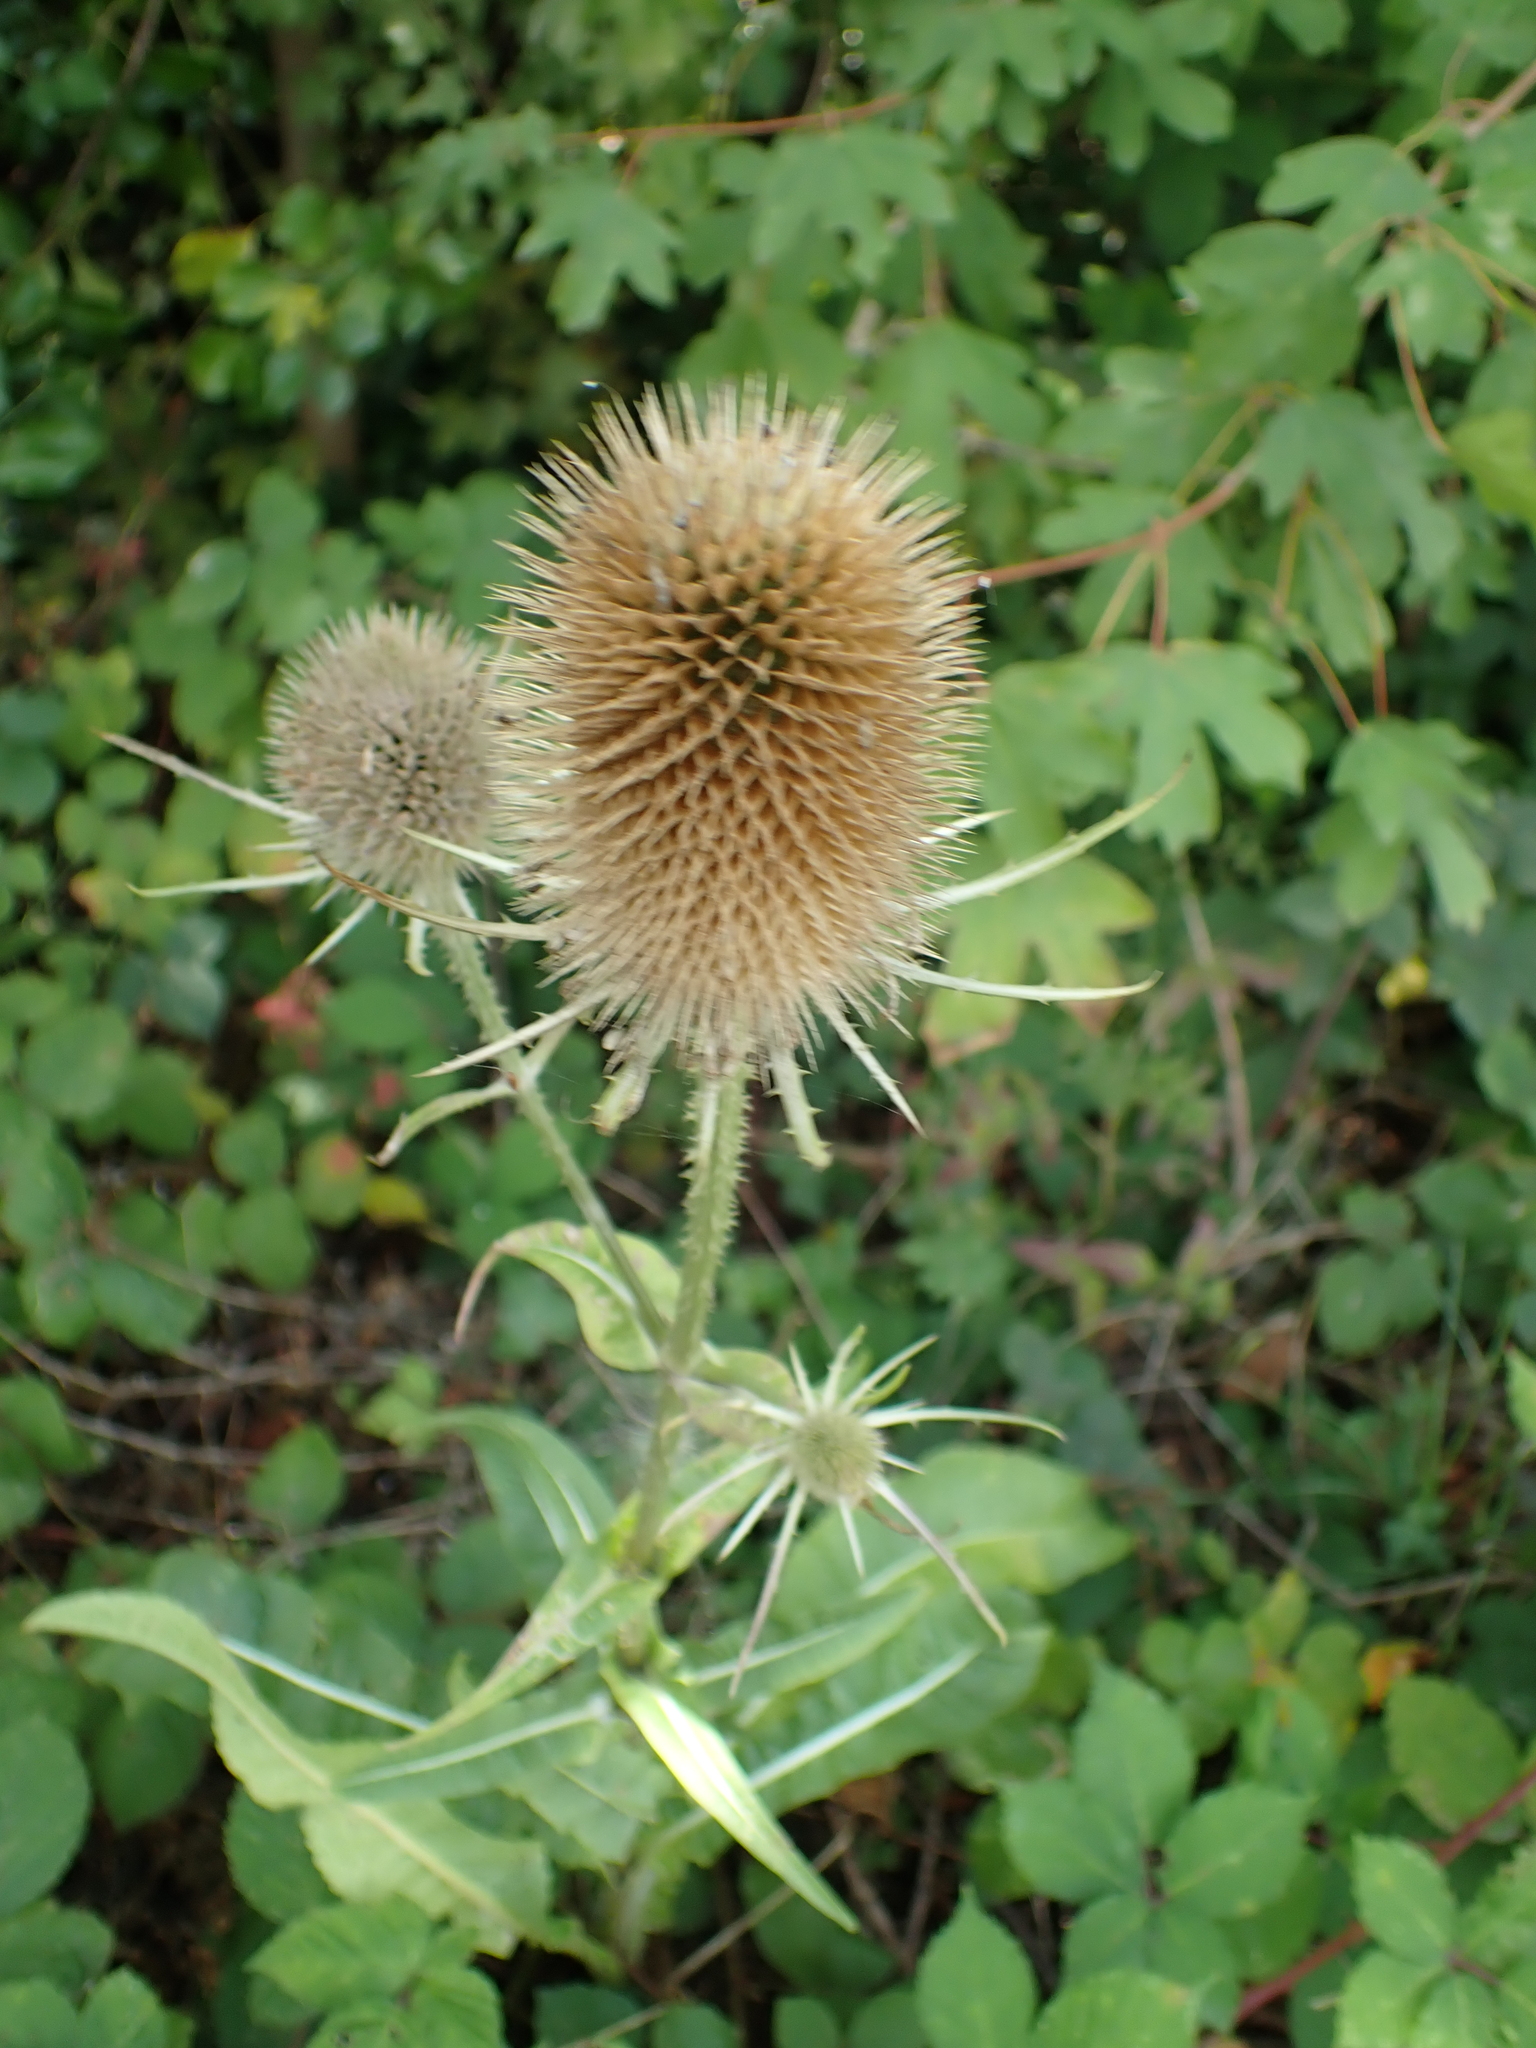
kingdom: Plantae
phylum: Tracheophyta
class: Magnoliopsida
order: Dipsacales
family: Caprifoliaceae
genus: Dipsacus
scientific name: Dipsacus fullonum
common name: Teasel
